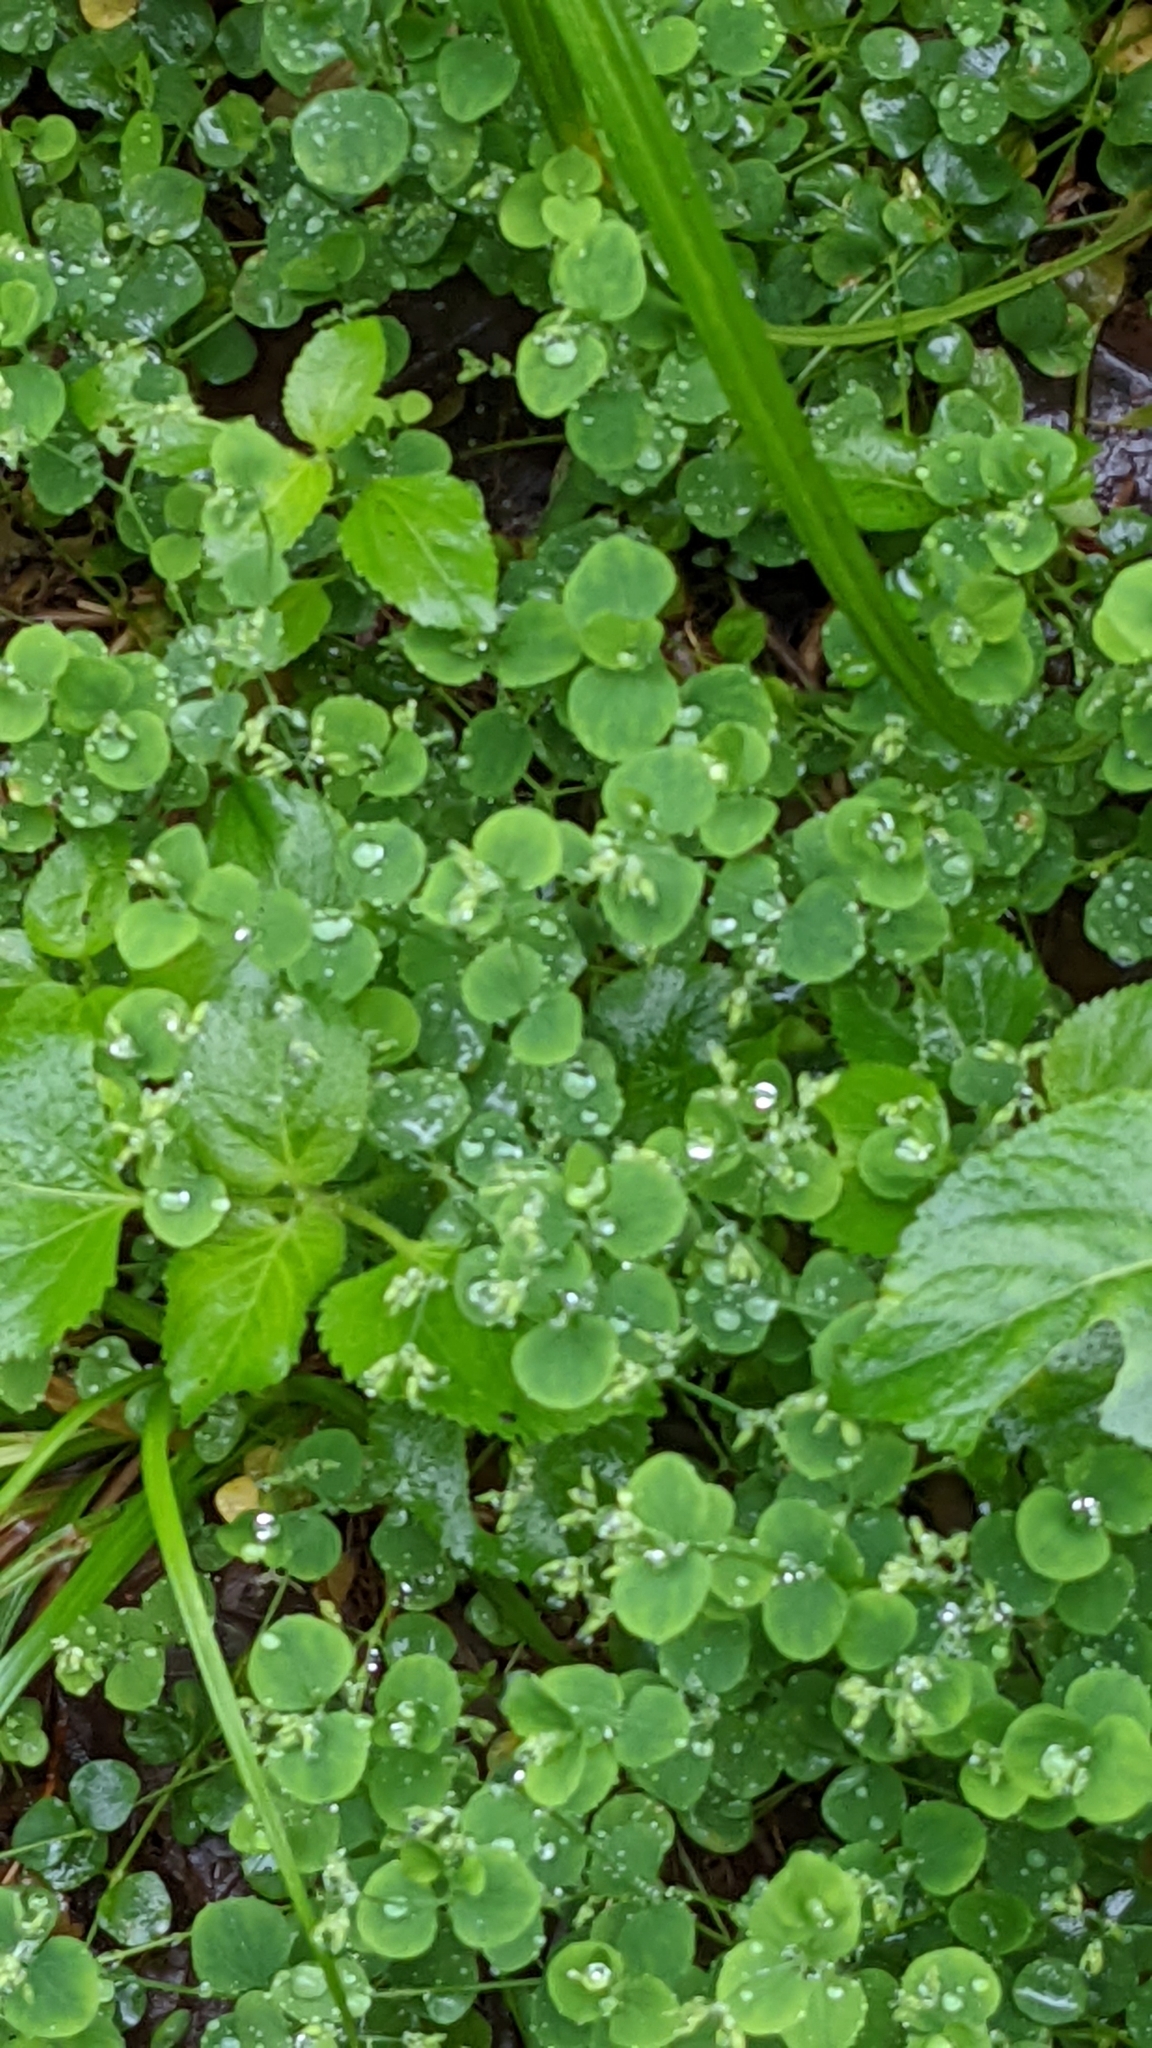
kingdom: Plantae
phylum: Tracheophyta
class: Magnoliopsida
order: Caryophyllales
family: Caryophyllaceae
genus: Drymaria
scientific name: Drymaria cordata
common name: Whitesnow
